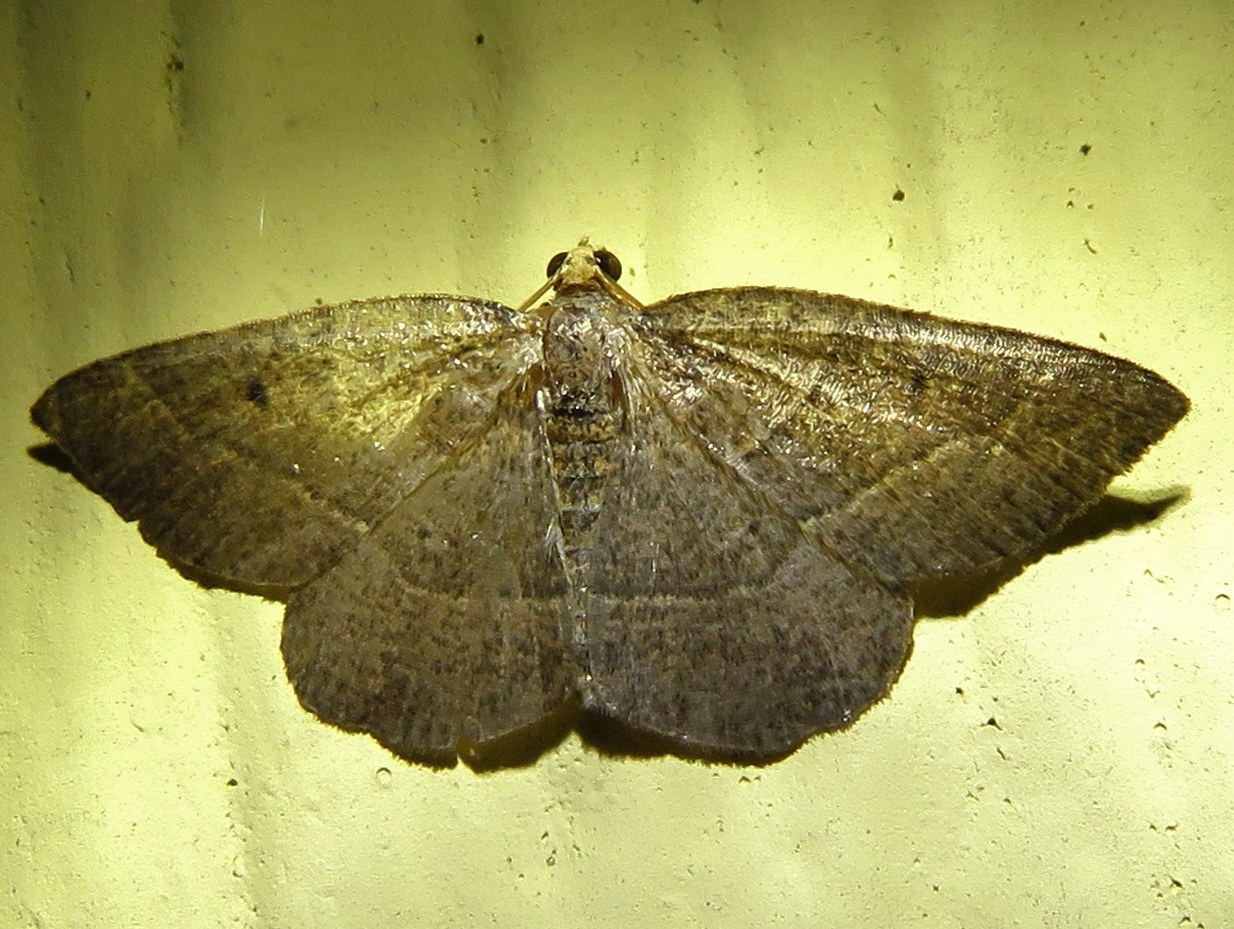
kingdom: Animalia
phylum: Arthropoda
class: Insecta
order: Lepidoptera
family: Geometridae
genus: Episemasia
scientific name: Episemasia cervinaria
